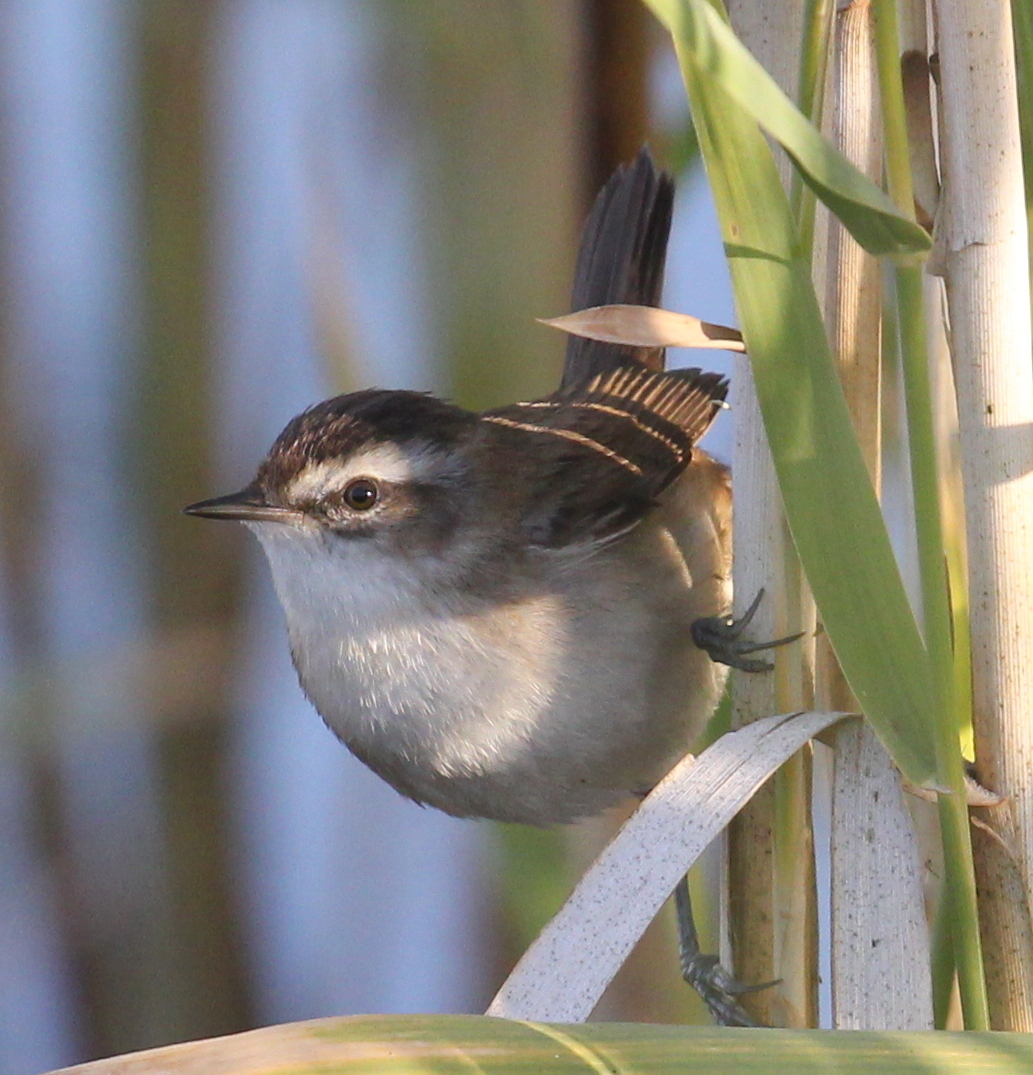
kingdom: Animalia
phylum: Chordata
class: Aves
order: Passeriformes
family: Acrocephalidae
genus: Acrocephalus
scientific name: Acrocephalus melanopogon
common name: Moustached warbler
